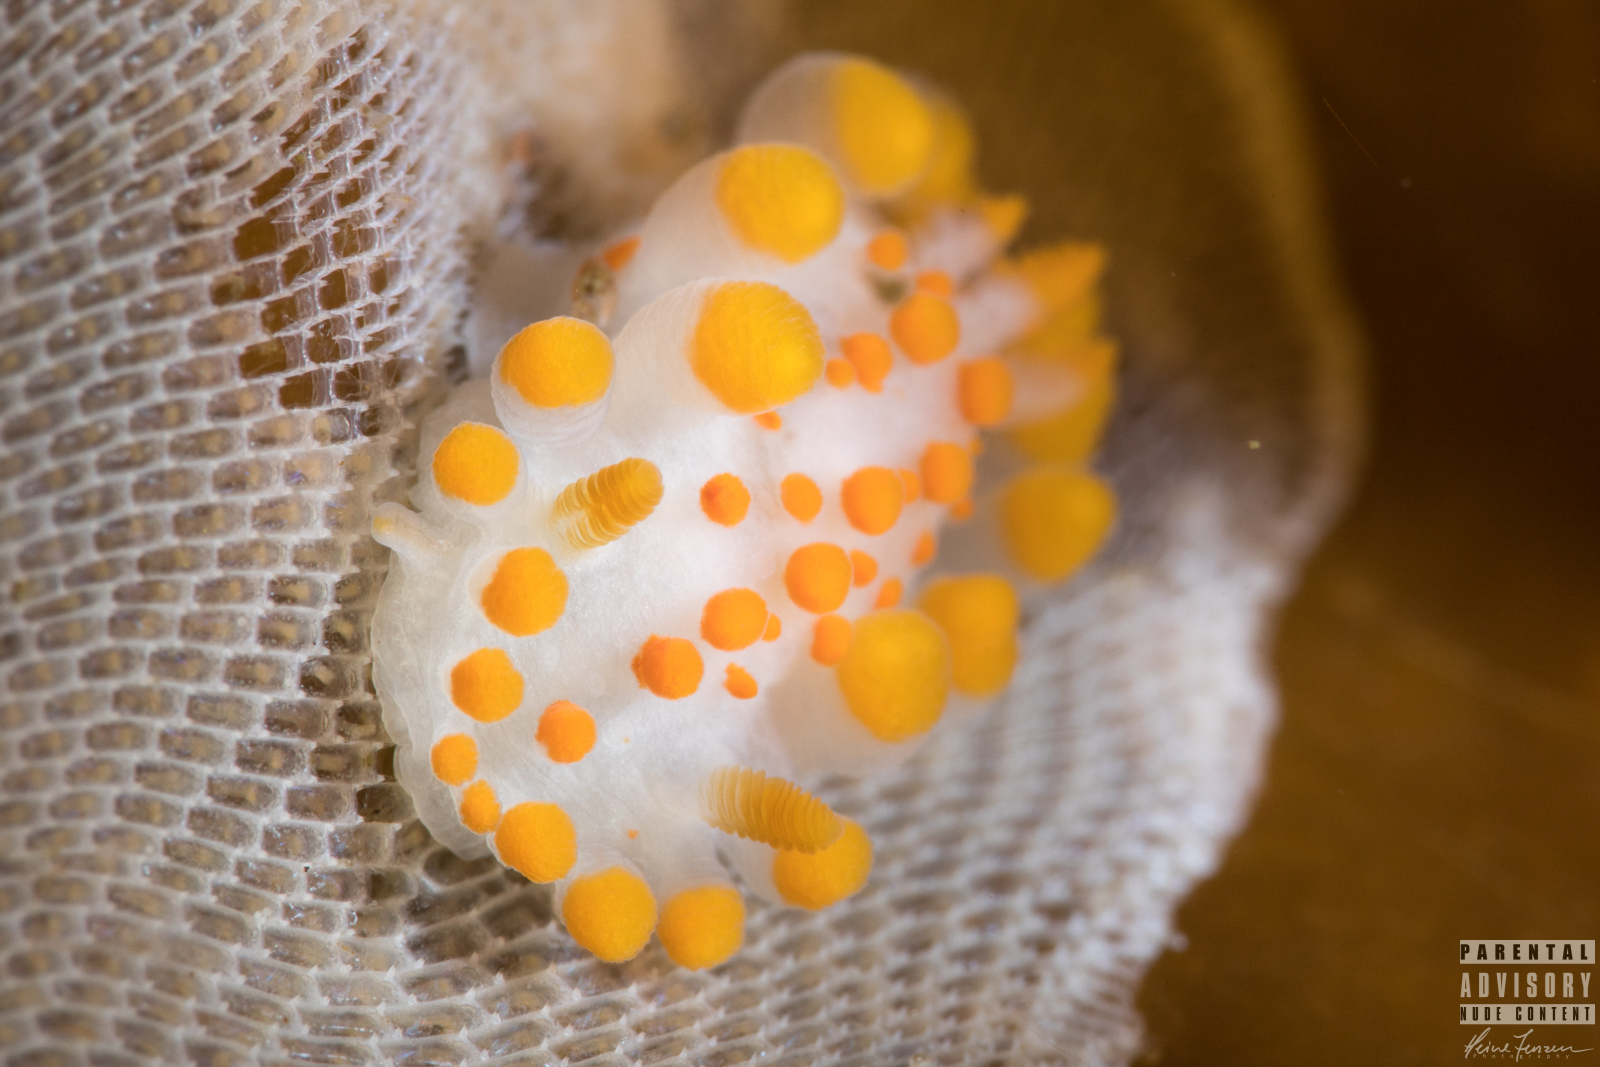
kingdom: Animalia
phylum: Mollusca
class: Gastropoda
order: Nudibranchia
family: Polyceridae
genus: Limacia
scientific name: Limacia clavigera
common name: Orange-clubbed sea slug
